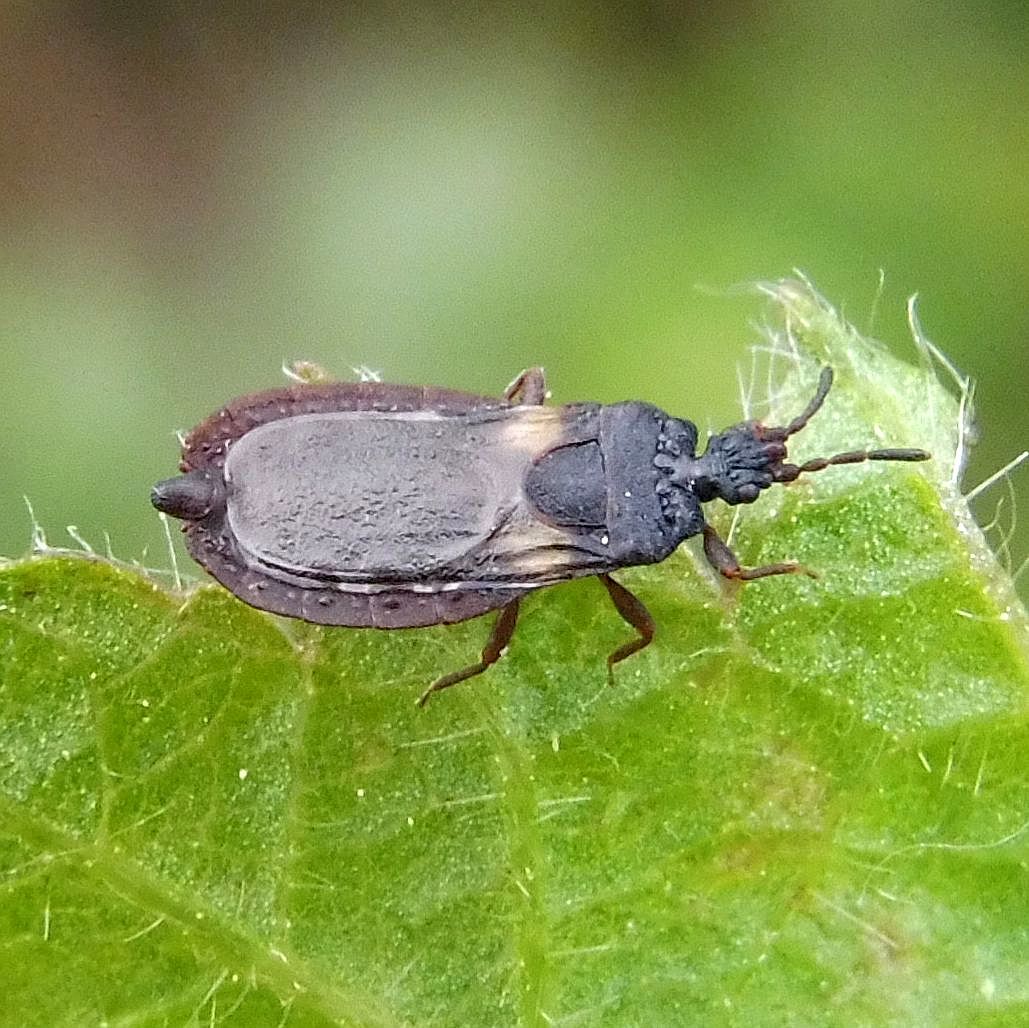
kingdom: Animalia
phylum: Arthropoda
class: Insecta
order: Hemiptera
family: Aradidae
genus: Aneurus
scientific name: Aneurus avenius
